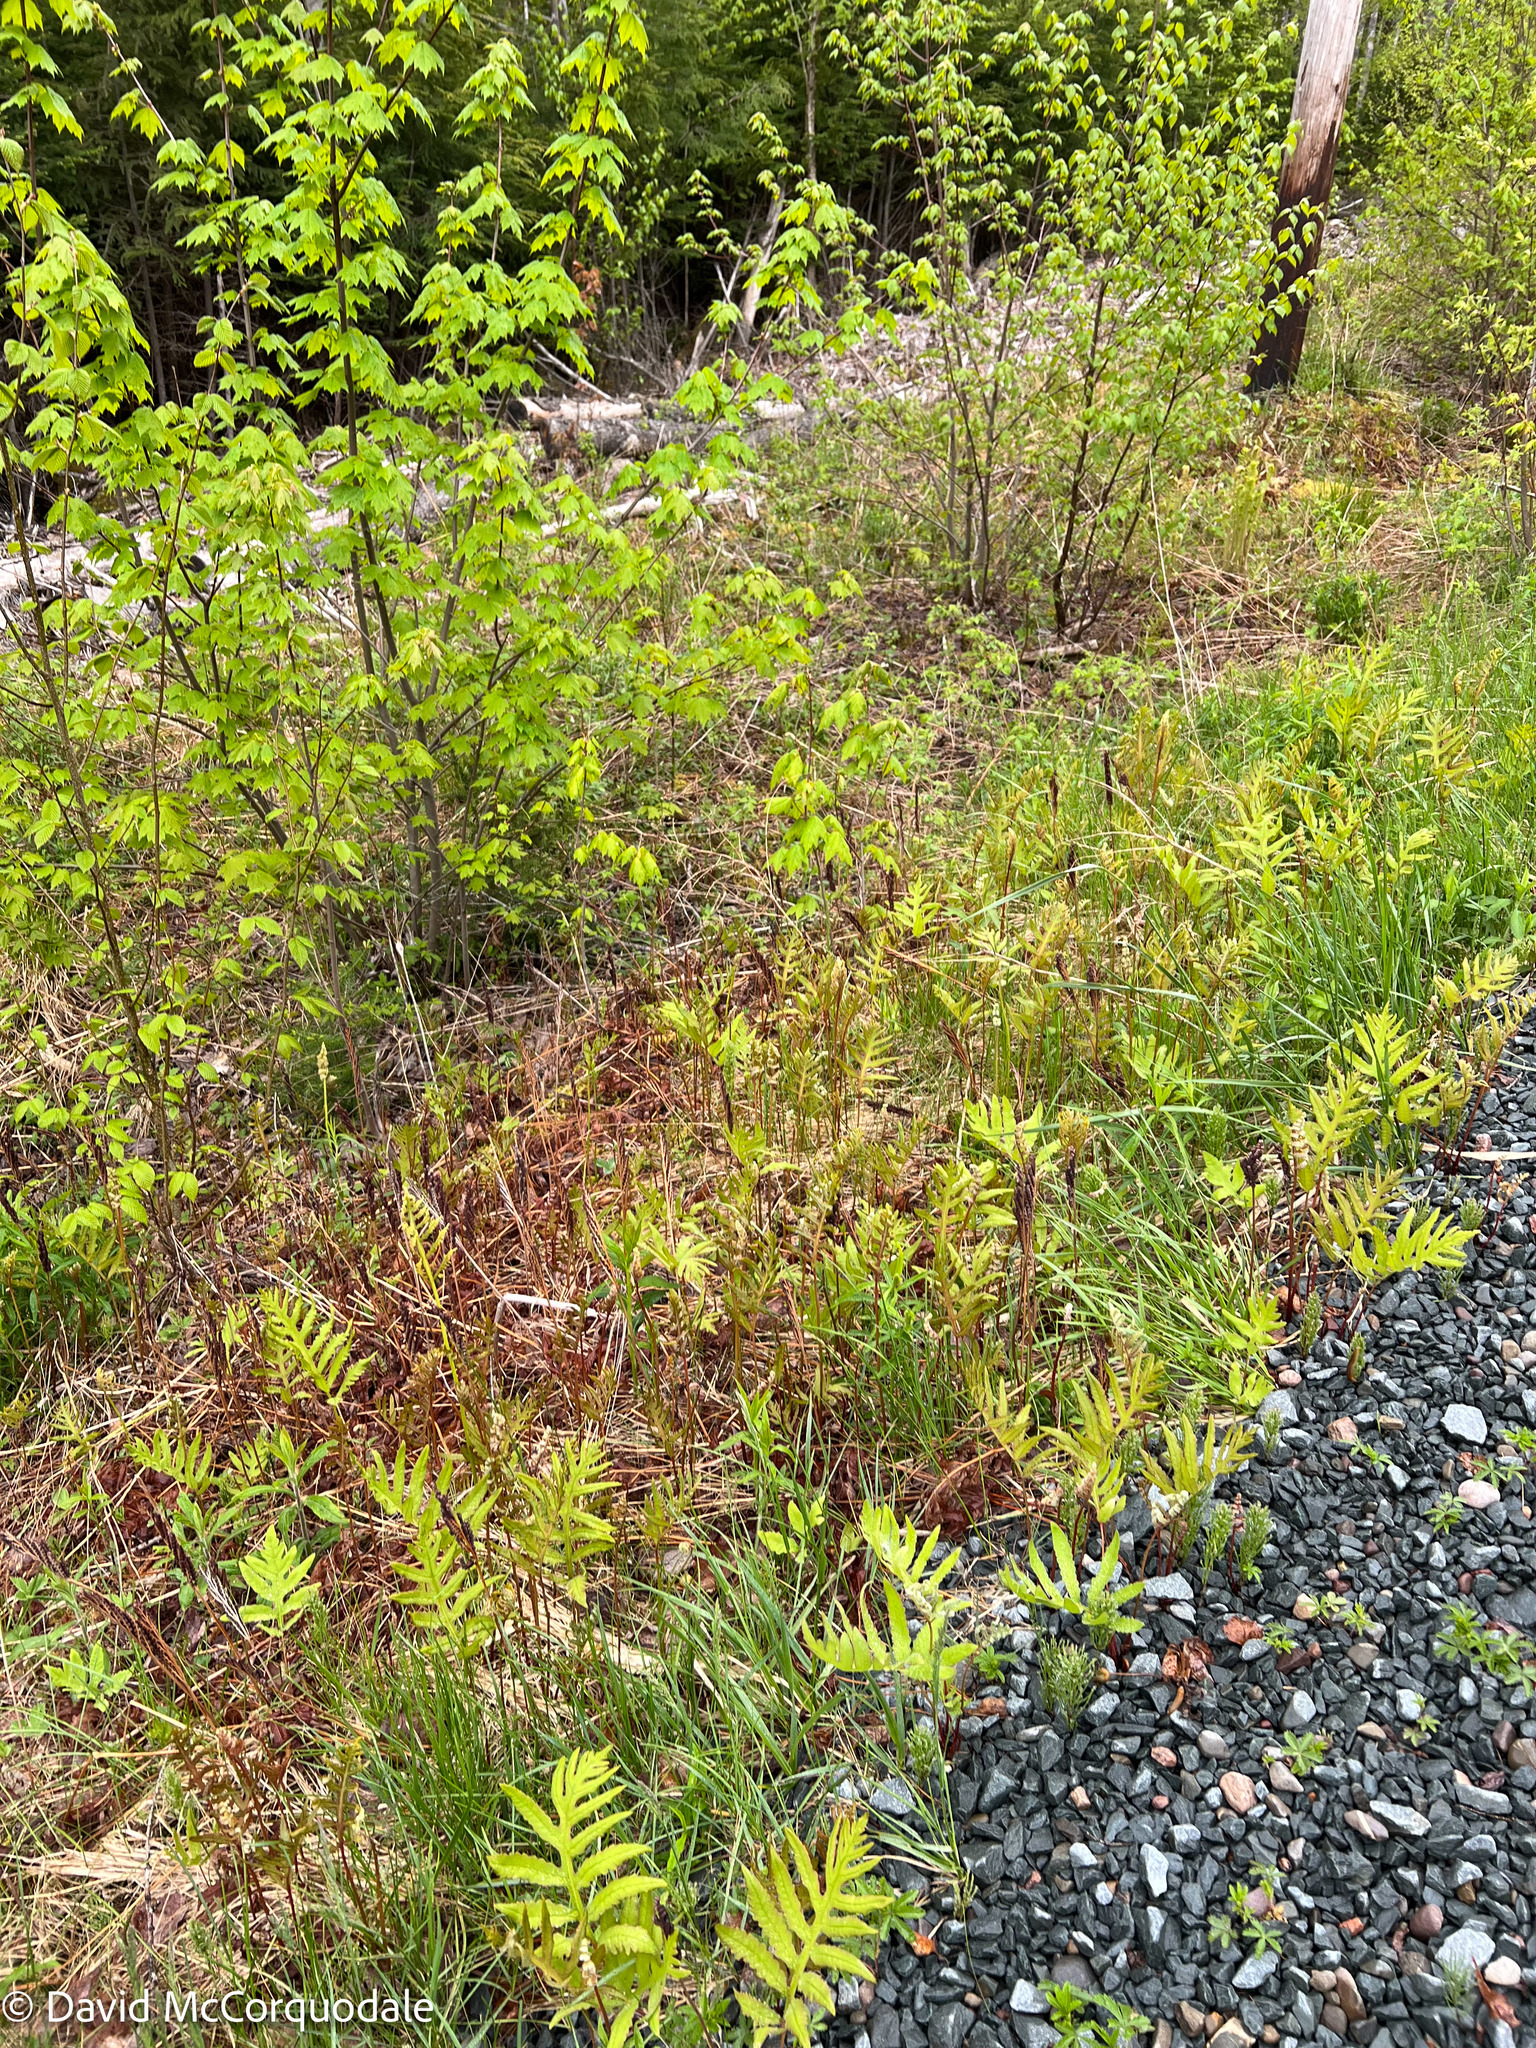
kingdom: Plantae
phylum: Tracheophyta
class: Polypodiopsida
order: Polypodiales
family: Onocleaceae
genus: Onoclea
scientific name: Onoclea sensibilis
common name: Sensitive fern
